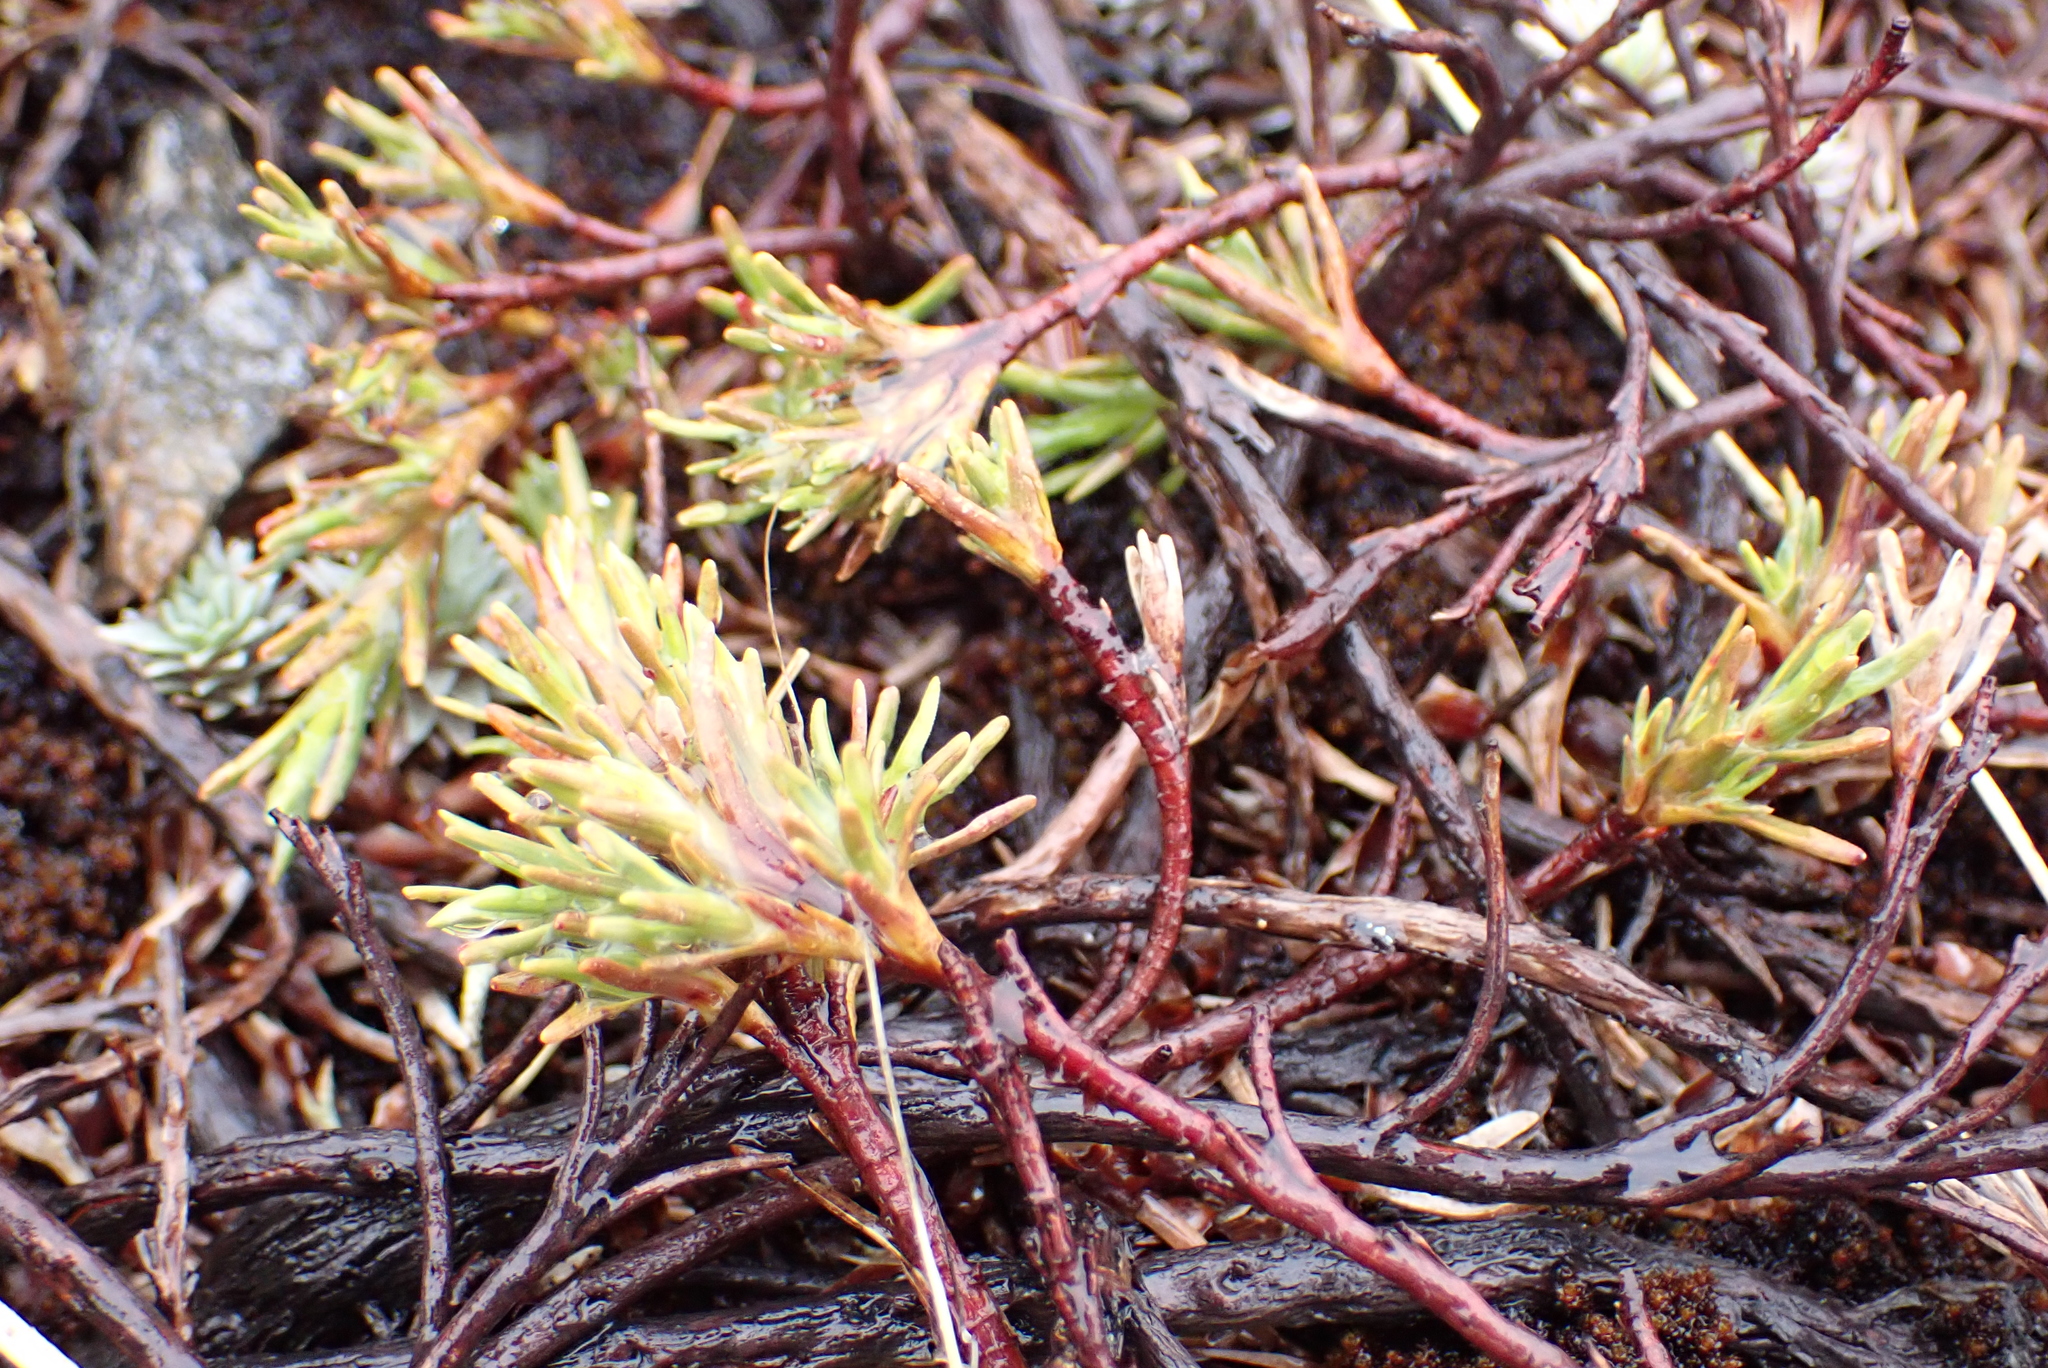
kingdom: Plantae
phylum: Tracheophyta
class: Magnoliopsida
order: Ericales
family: Ericaceae
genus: Dracophyllum
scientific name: Dracophyllum pronum
